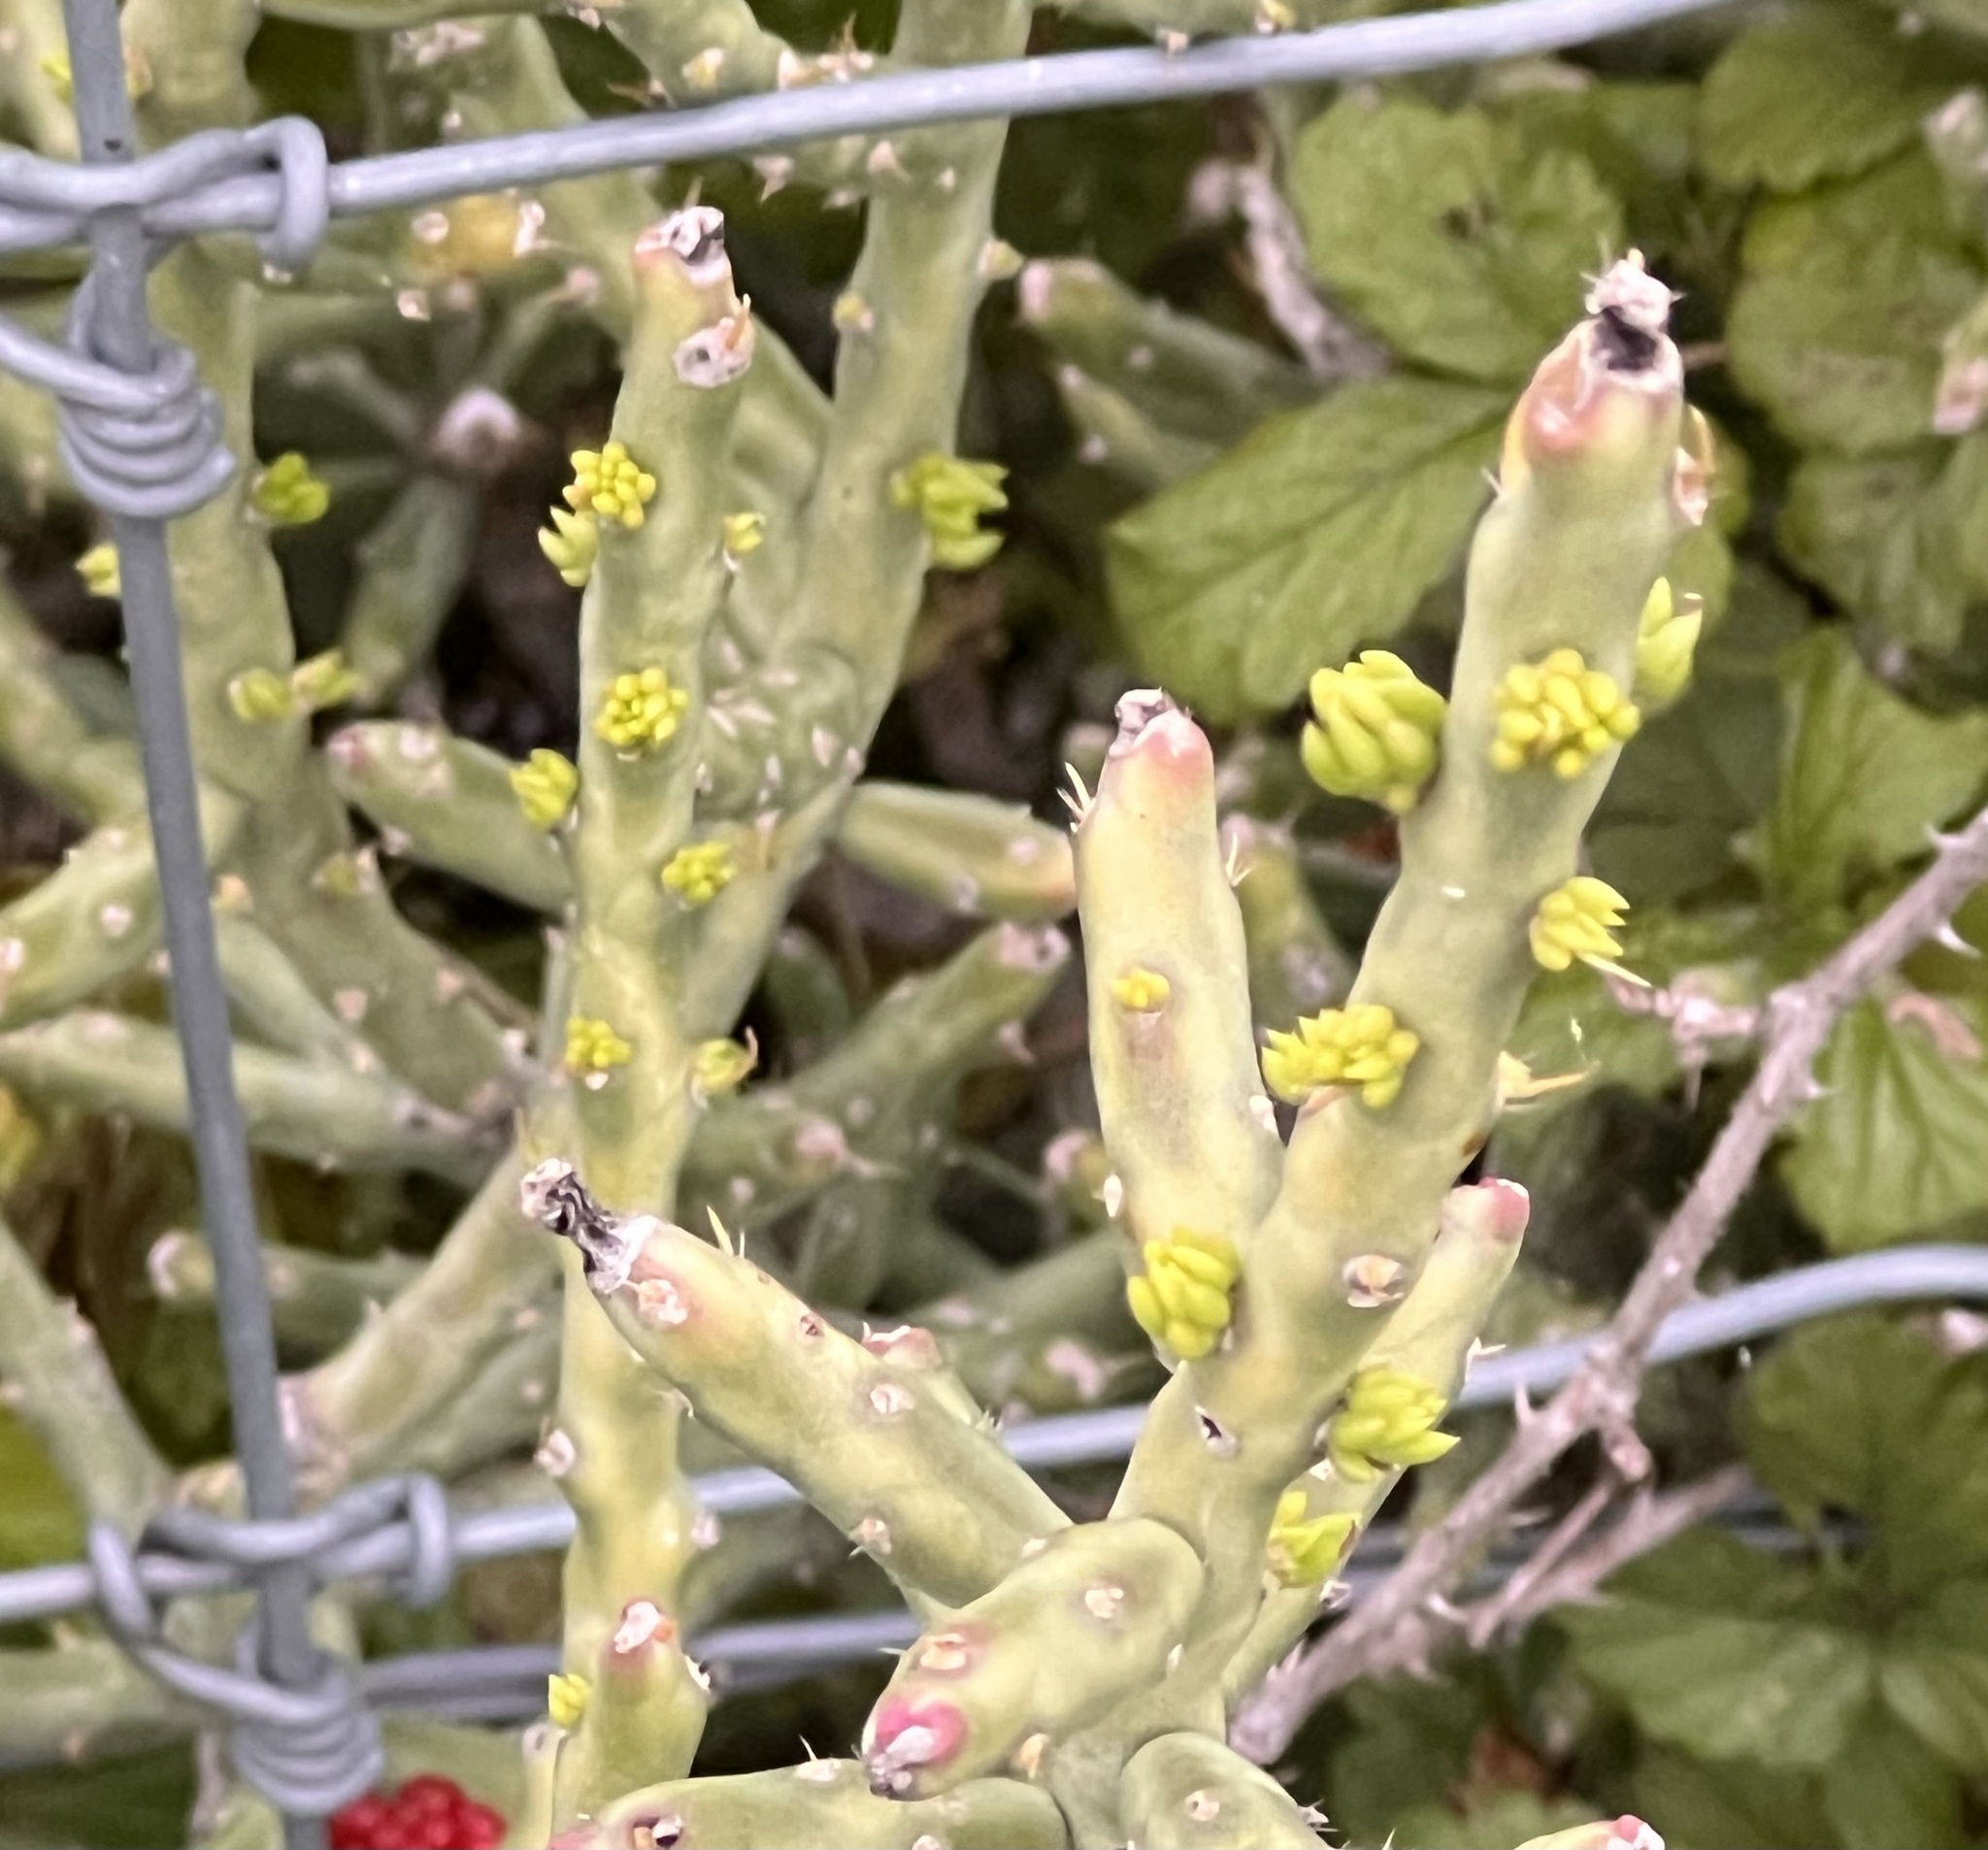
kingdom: Plantae
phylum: Tracheophyta
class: Magnoliopsida
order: Caryophyllales
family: Cactaceae
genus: Cylindropuntia
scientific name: Cylindropuntia leptocaulis
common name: Christmas cactus
